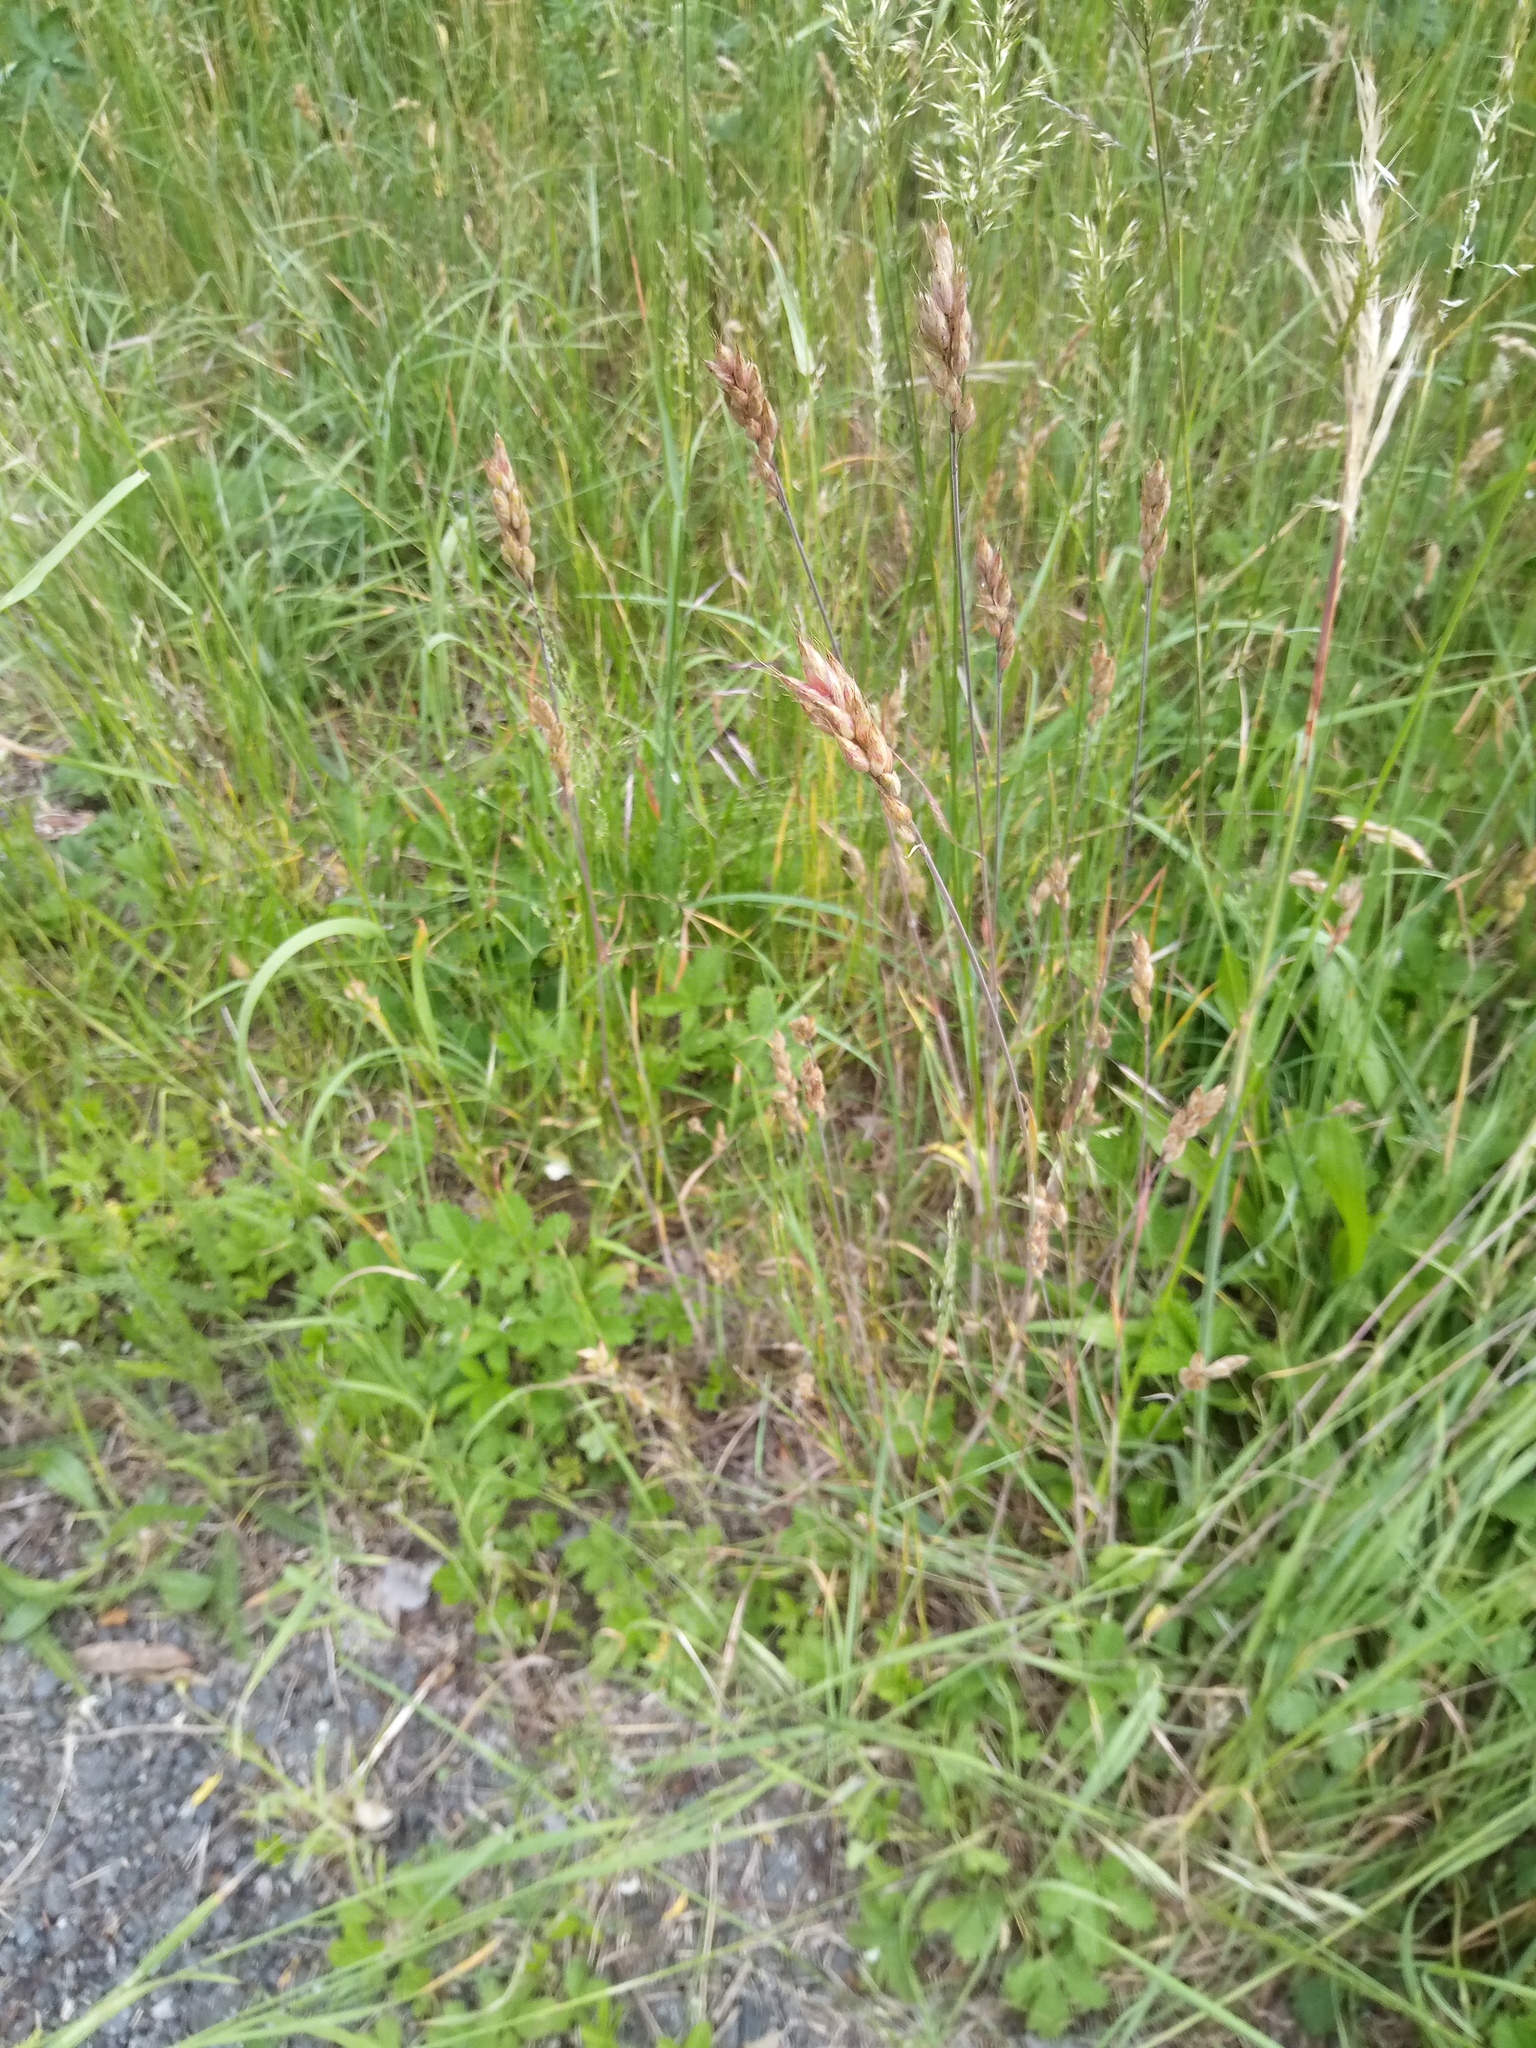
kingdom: Plantae
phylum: Tracheophyta
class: Liliopsida
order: Poales
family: Poaceae
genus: Bromus
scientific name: Bromus hordeaceus
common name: Soft brome
